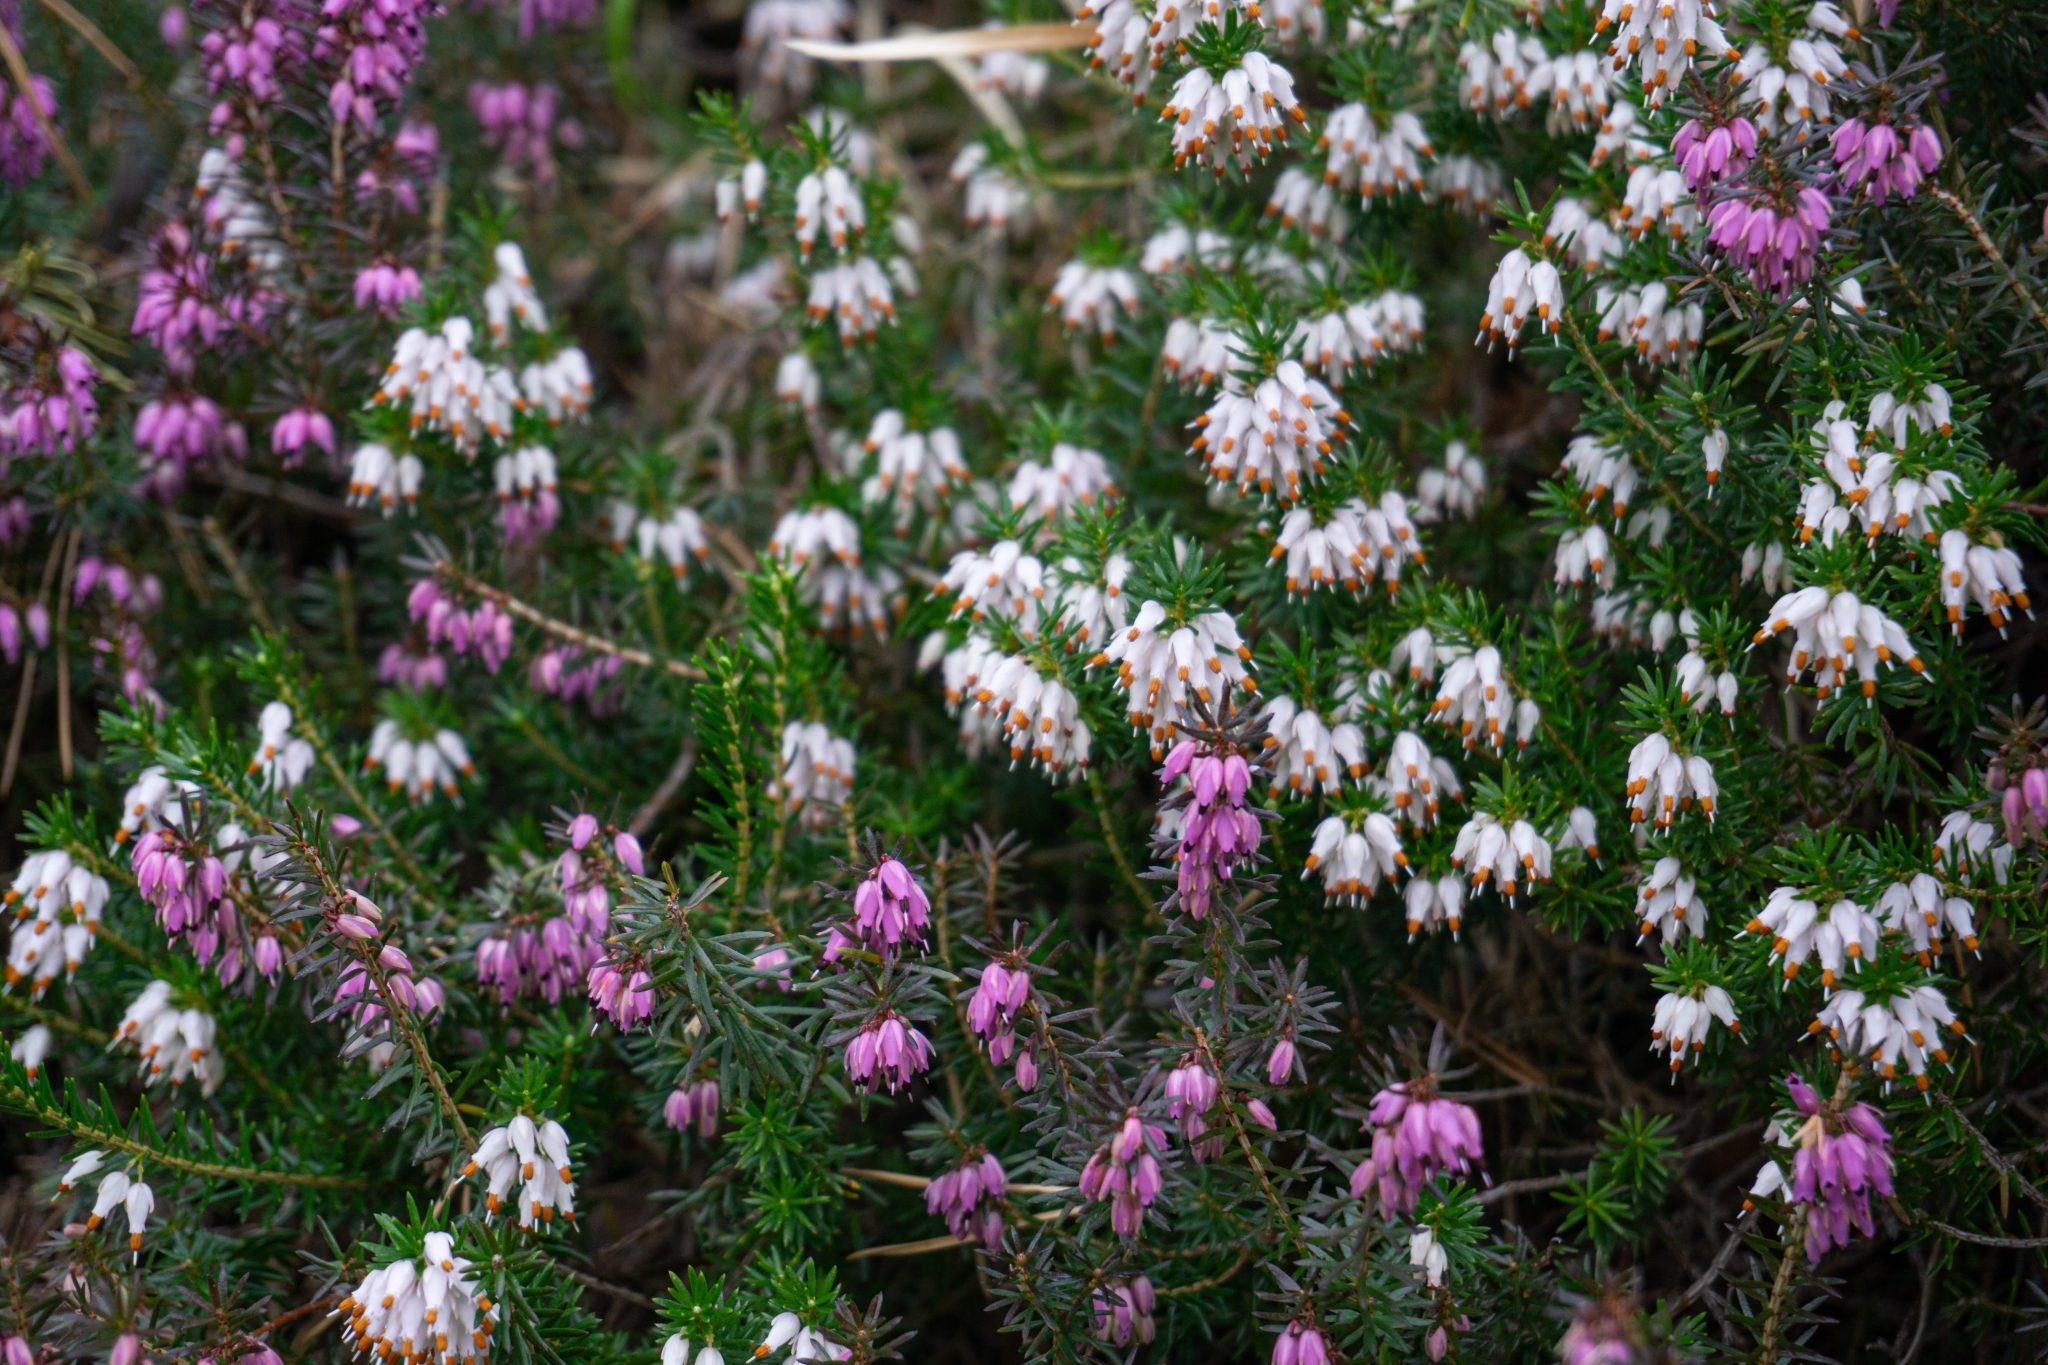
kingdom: Plantae
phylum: Tracheophyta
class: Magnoliopsida
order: Ericales
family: Ericaceae
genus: Erica
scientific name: Erica carnea
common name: Winter heath
